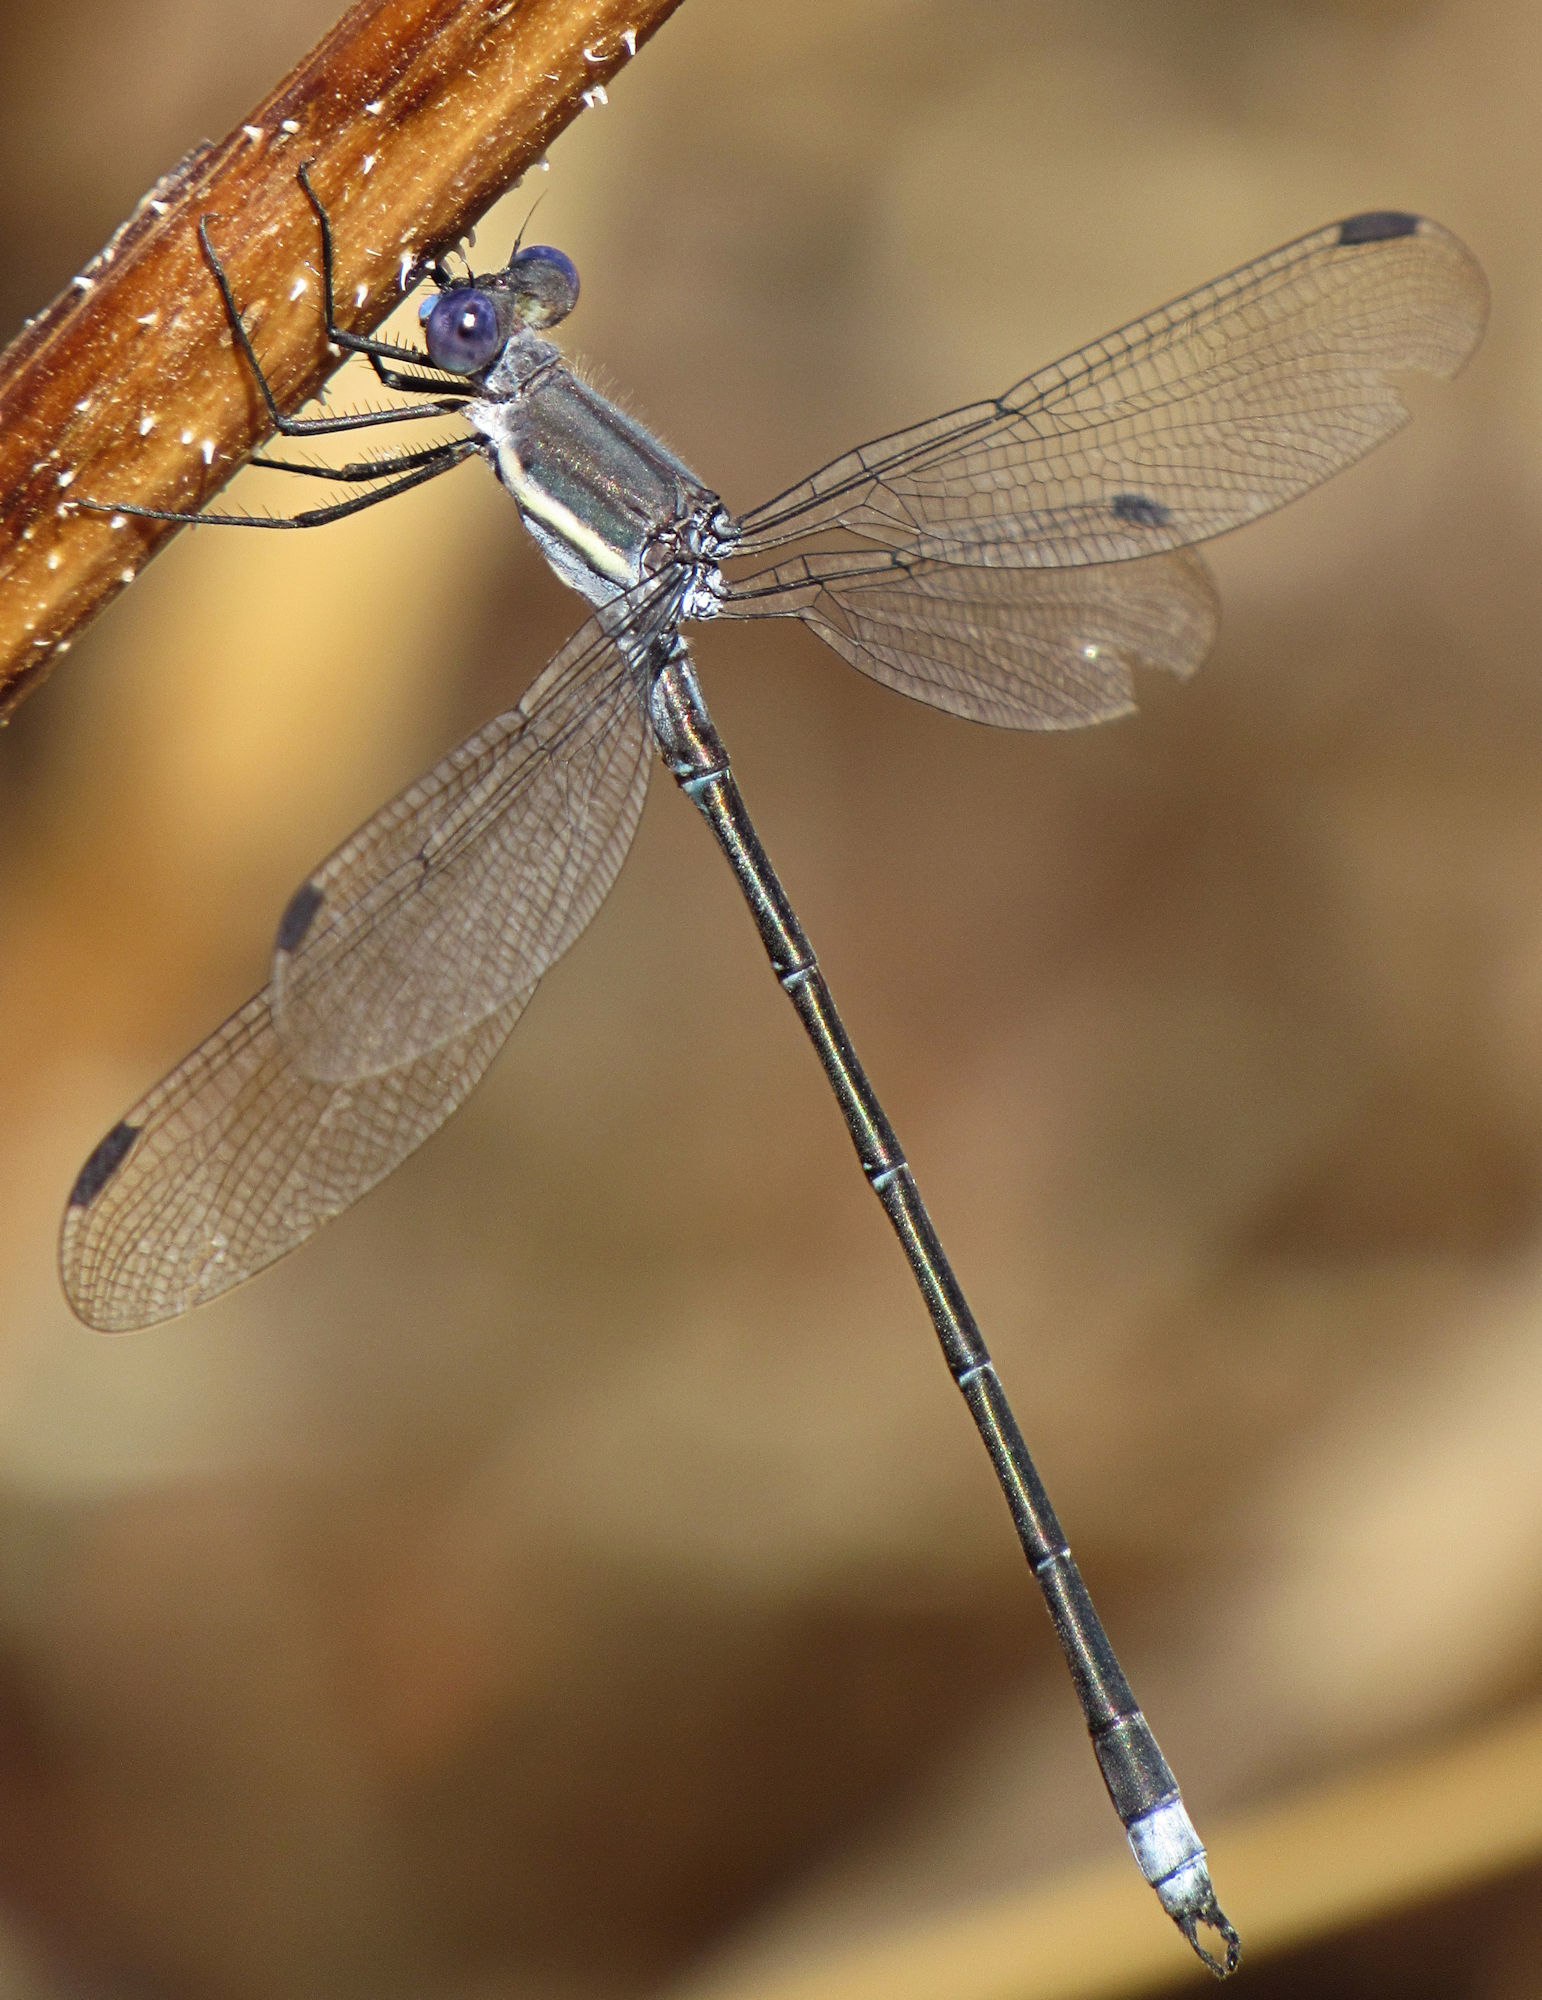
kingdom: Animalia
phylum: Arthropoda
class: Insecta
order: Odonata
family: Lestidae
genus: Archilestes
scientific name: Archilestes grandis
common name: Great spreadwing
